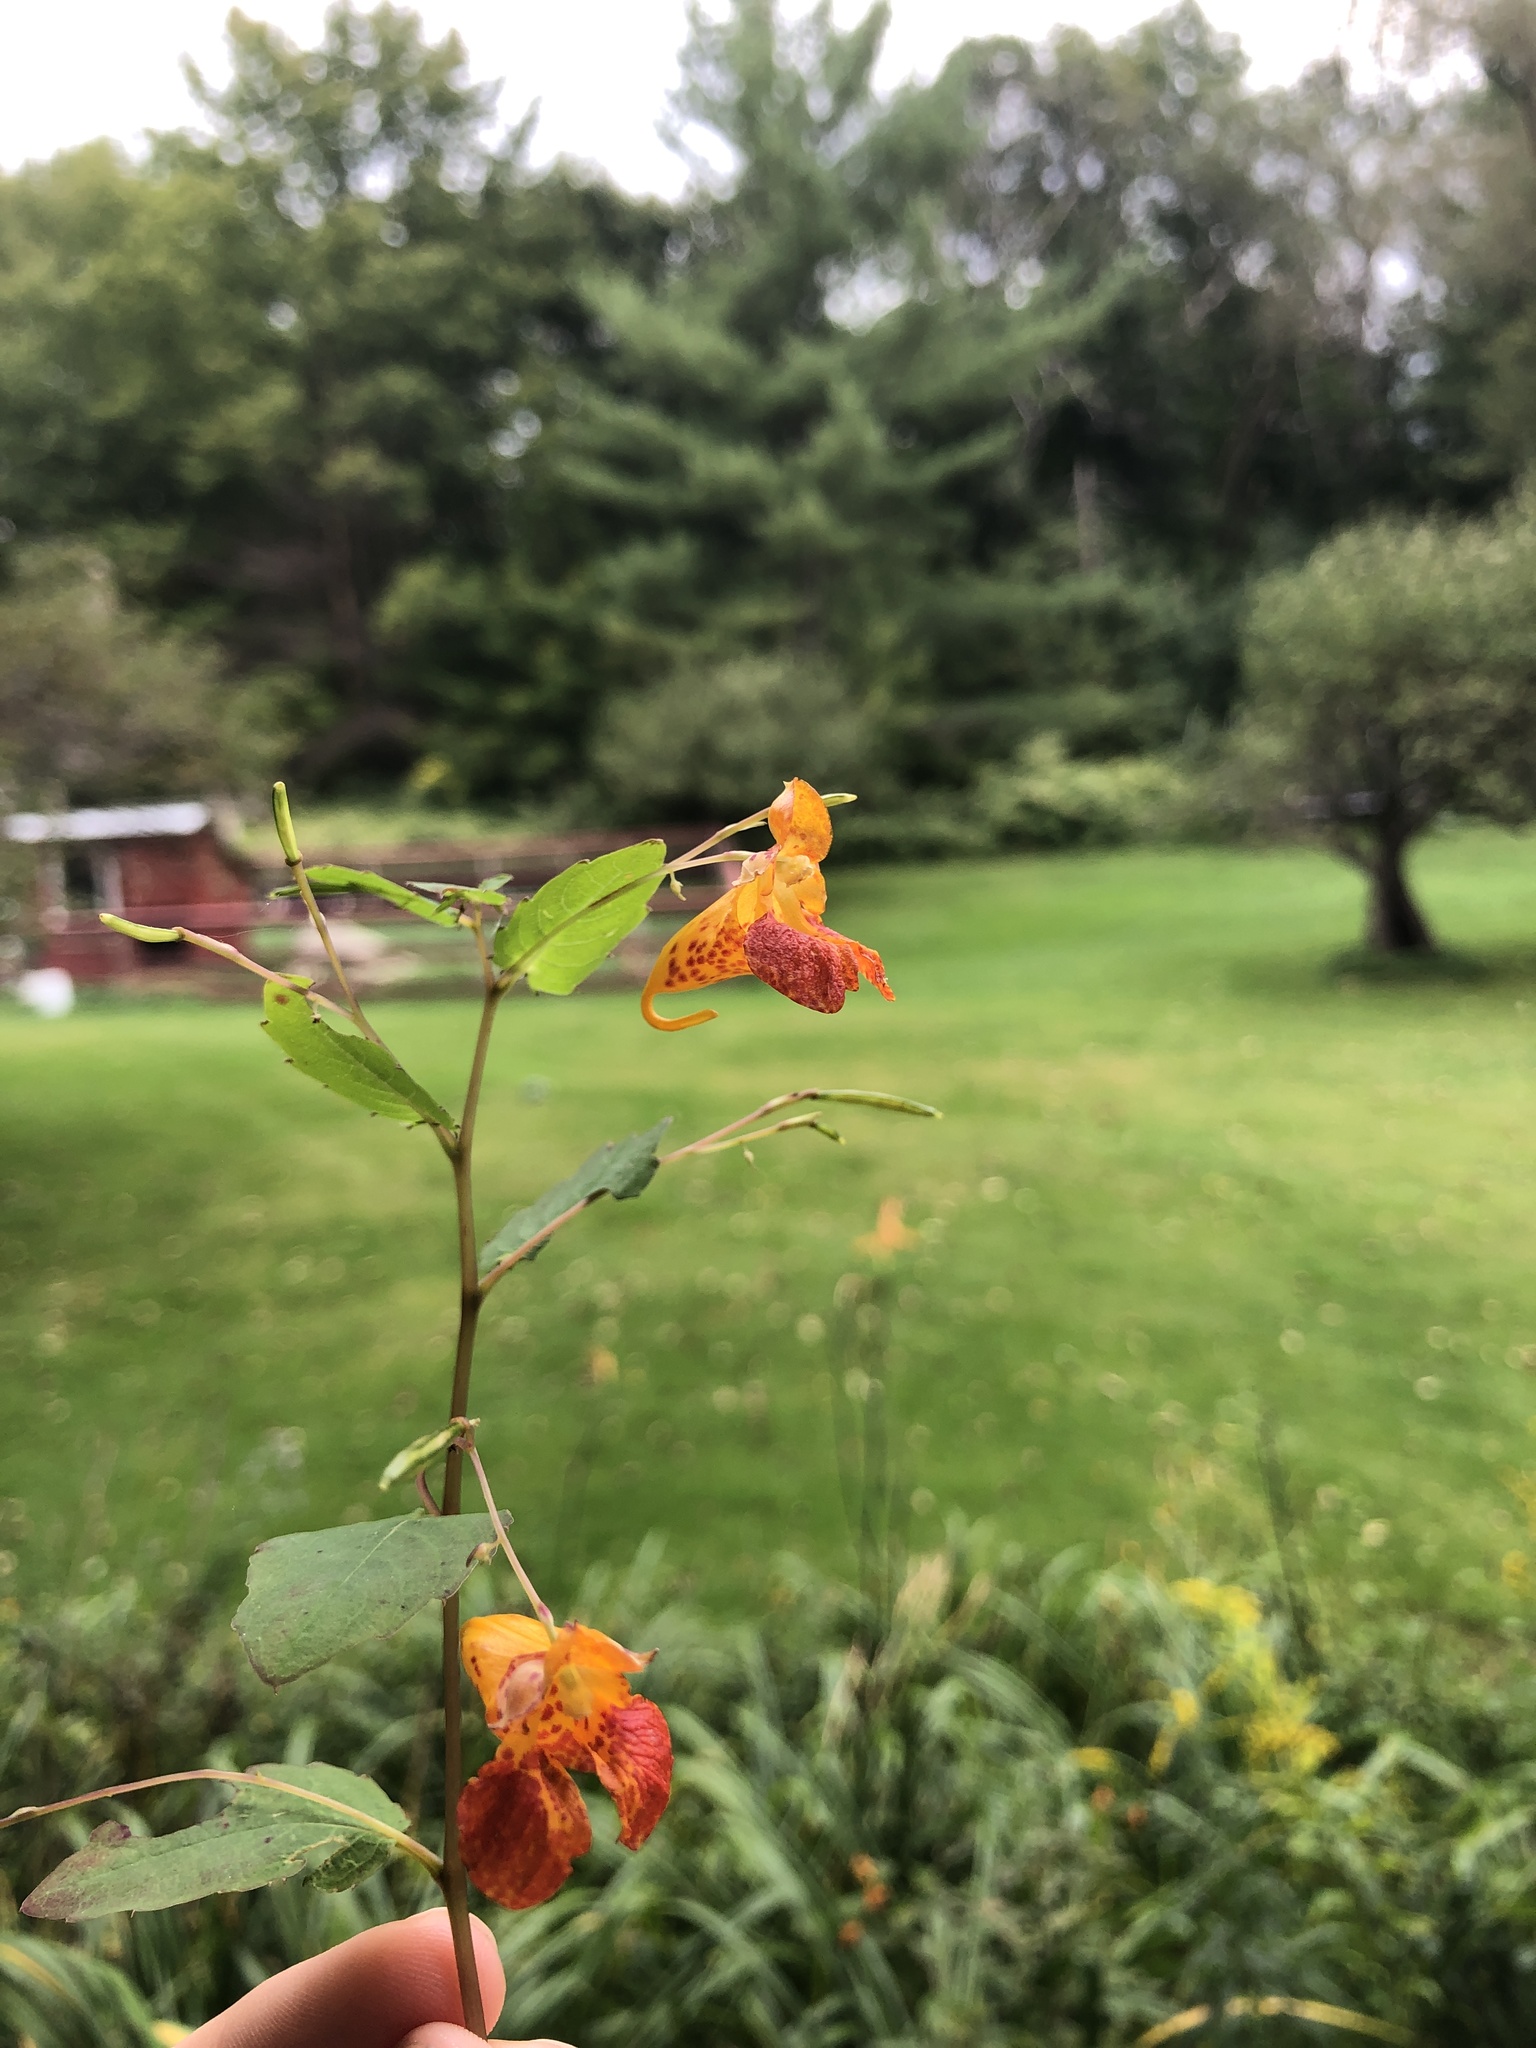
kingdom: Plantae
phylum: Tracheophyta
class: Magnoliopsida
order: Ericales
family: Balsaminaceae
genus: Impatiens
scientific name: Impatiens capensis
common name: Orange balsam
